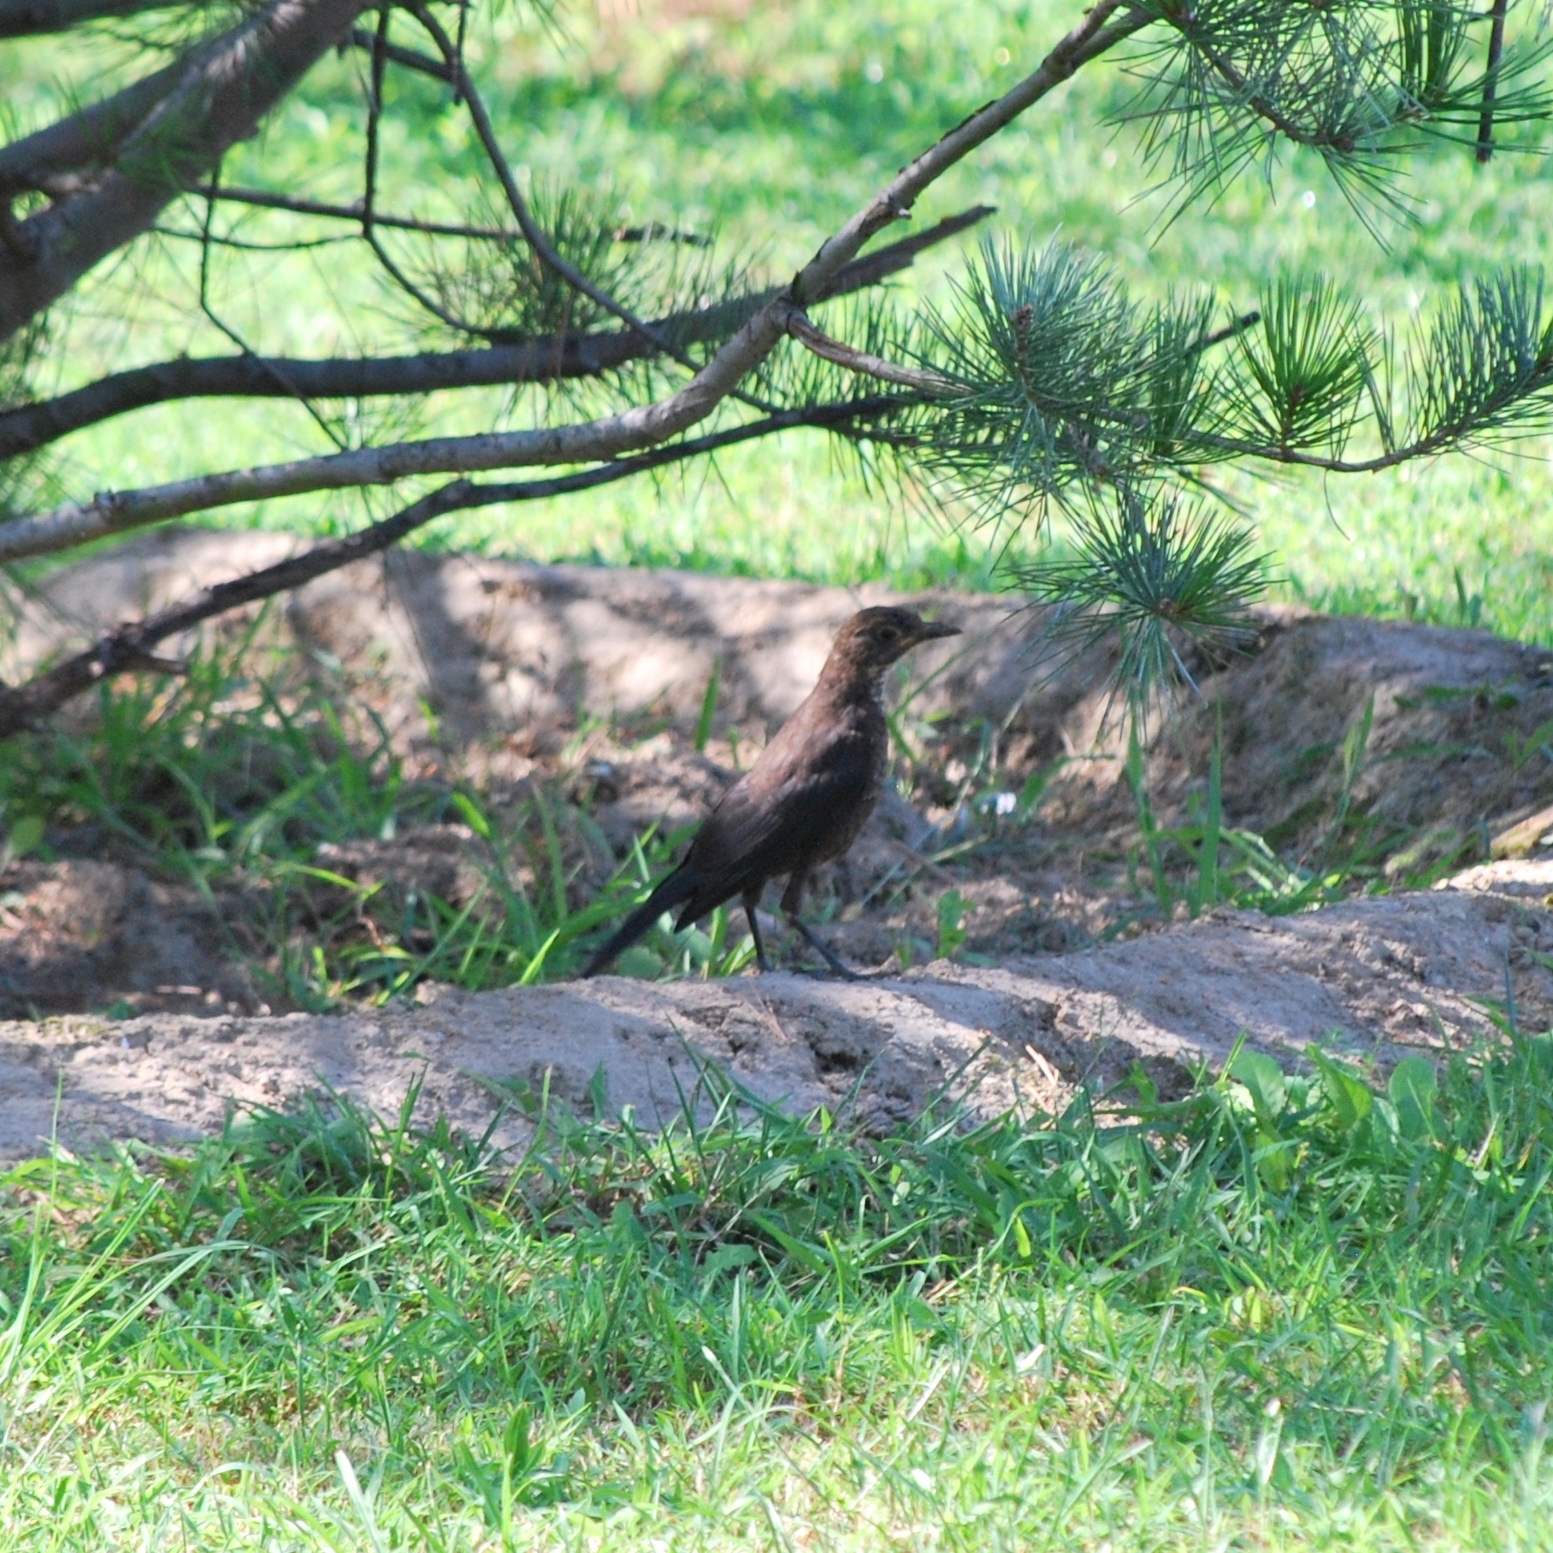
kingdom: Animalia
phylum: Chordata
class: Aves
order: Passeriformes
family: Turdidae
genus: Turdus
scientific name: Turdus mandarinus
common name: Chinese blackbird
